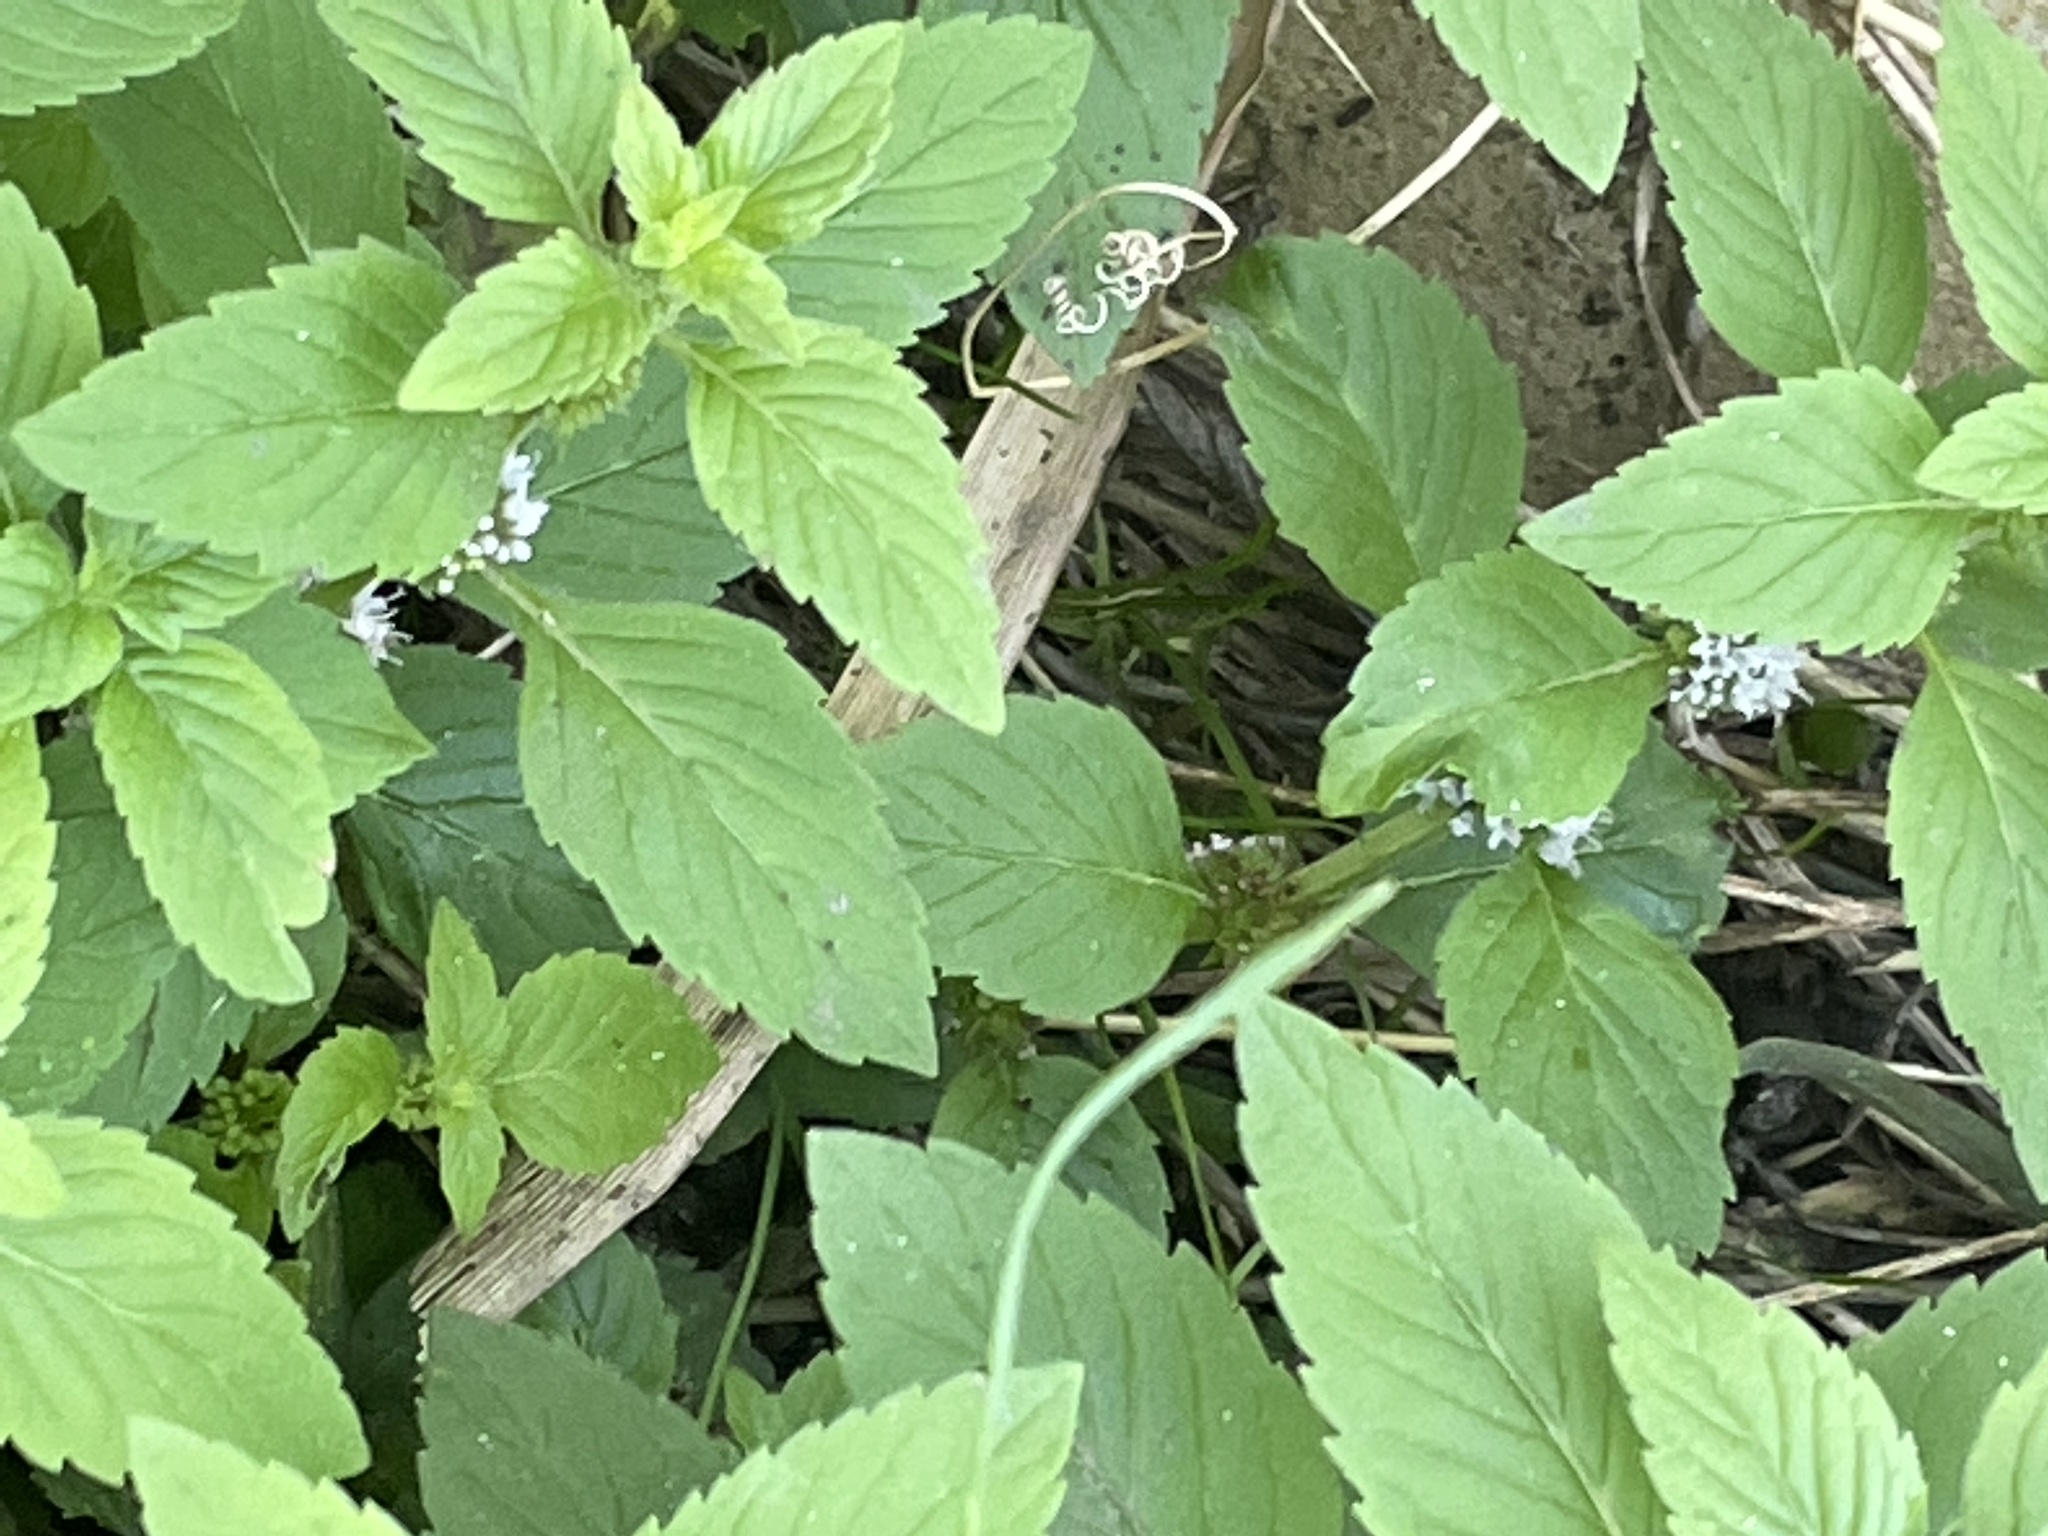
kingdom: Plantae
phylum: Tracheophyta
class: Magnoliopsida
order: Lamiales
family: Lamiaceae
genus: Mentha
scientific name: Mentha arvensis
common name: Corn mint
